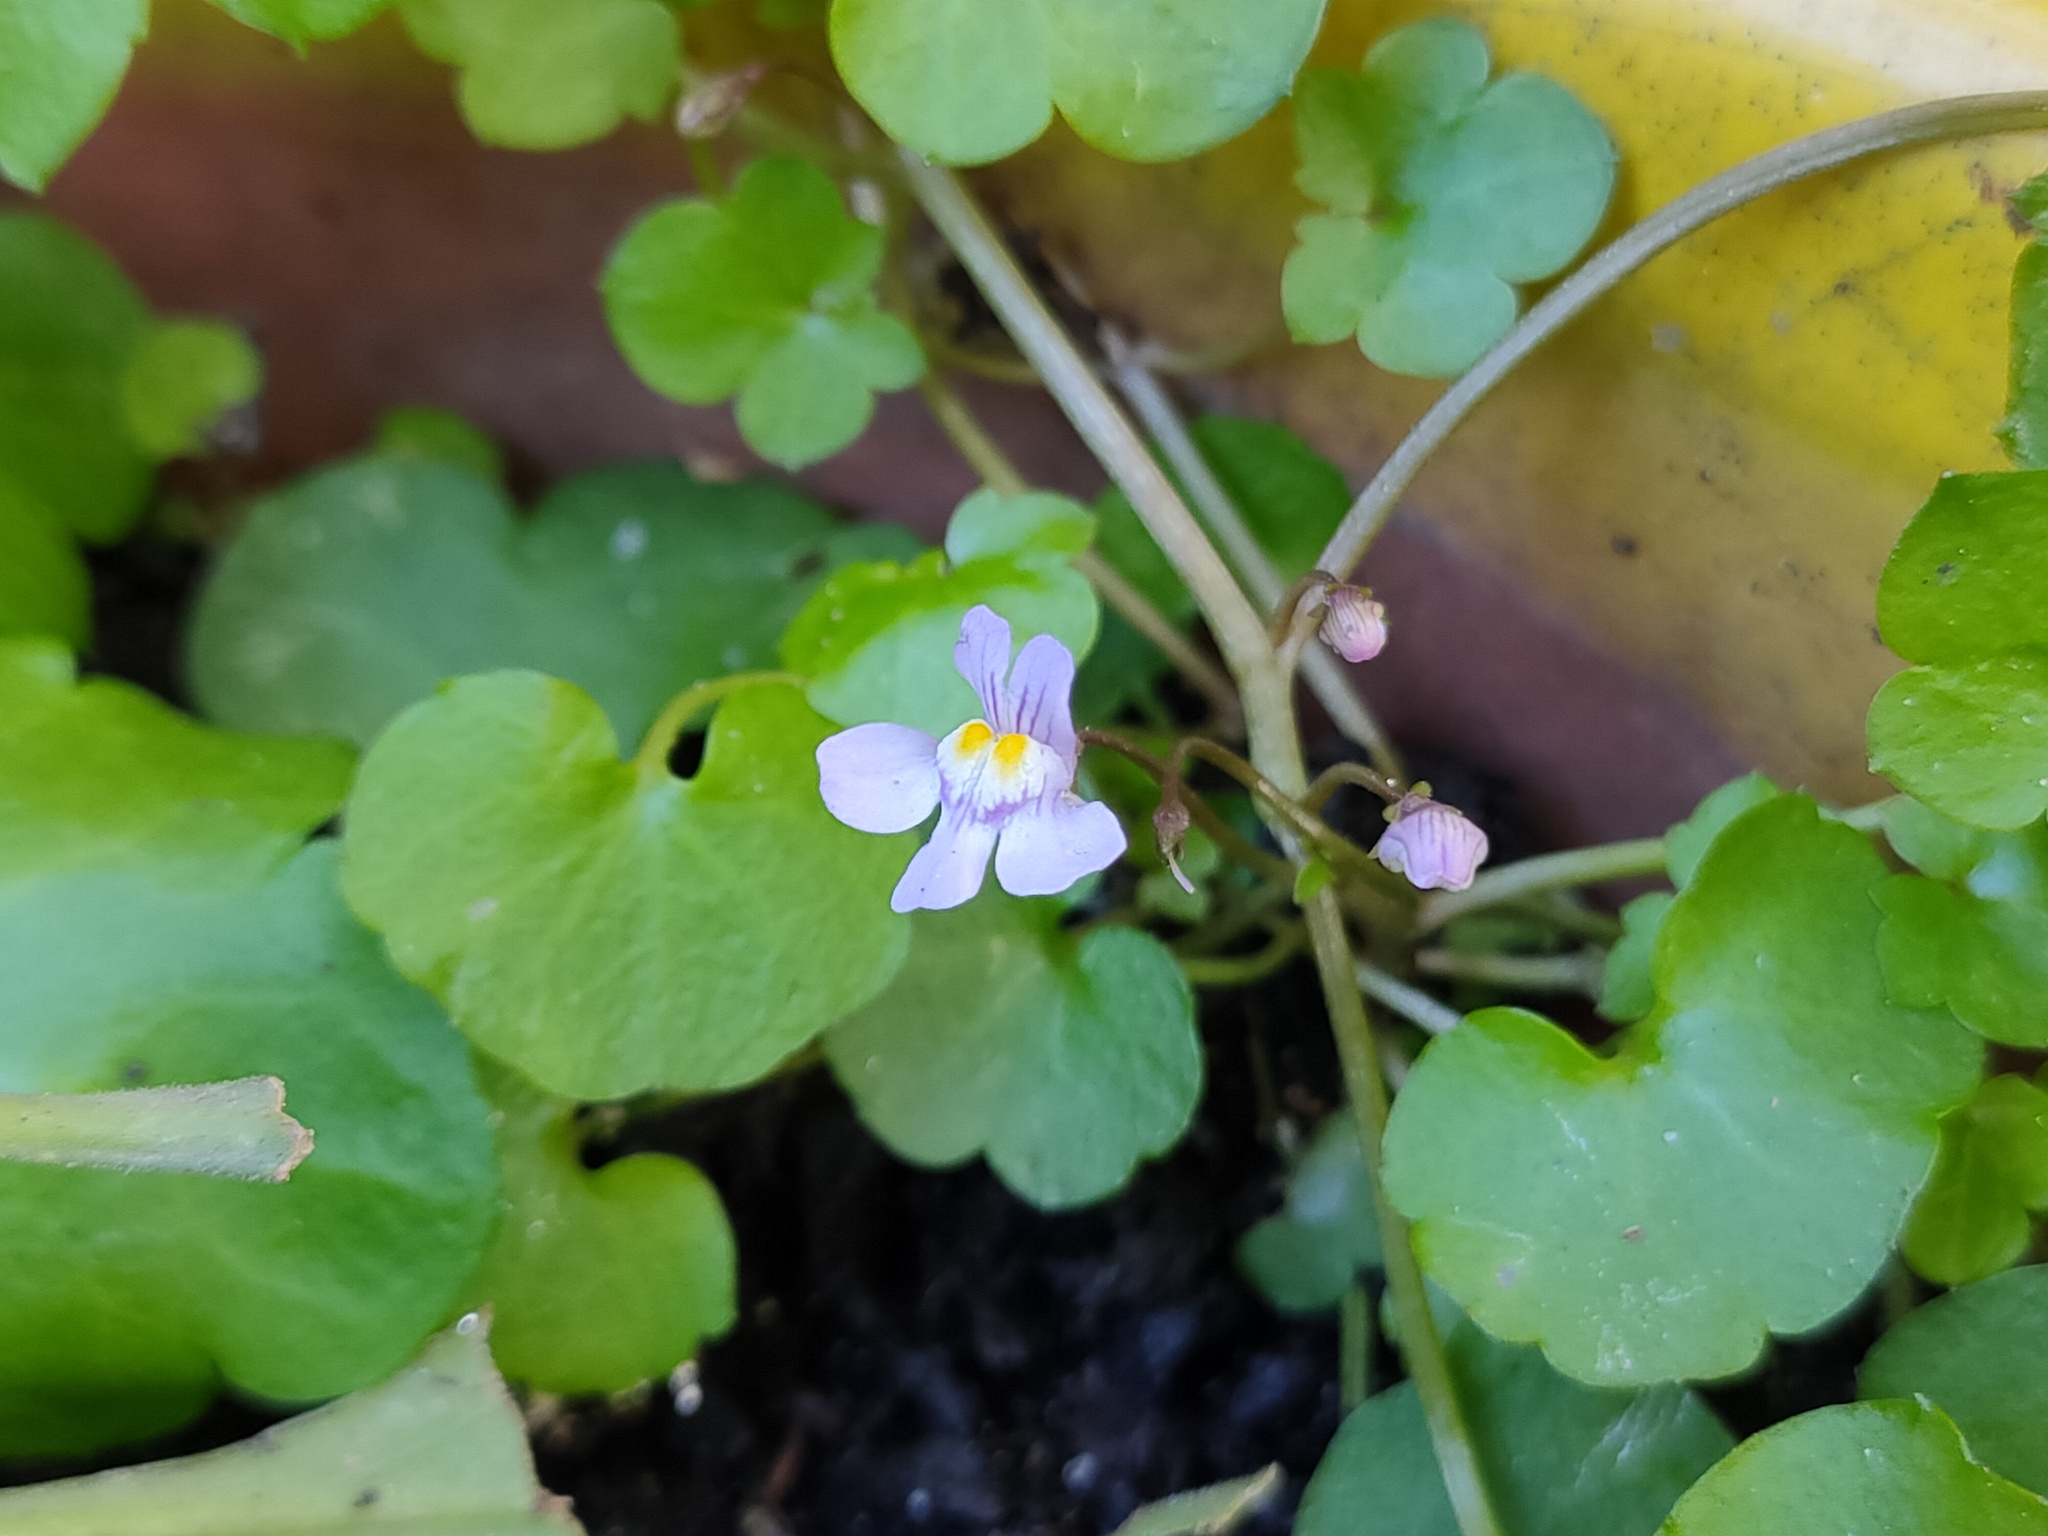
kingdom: Plantae
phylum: Tracheophyta
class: Magnoliopsida
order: Lamiales
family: Plantaginaceae
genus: Cymbalaria
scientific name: Cymbalaria muralis
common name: Ivy-leaved toadflax
